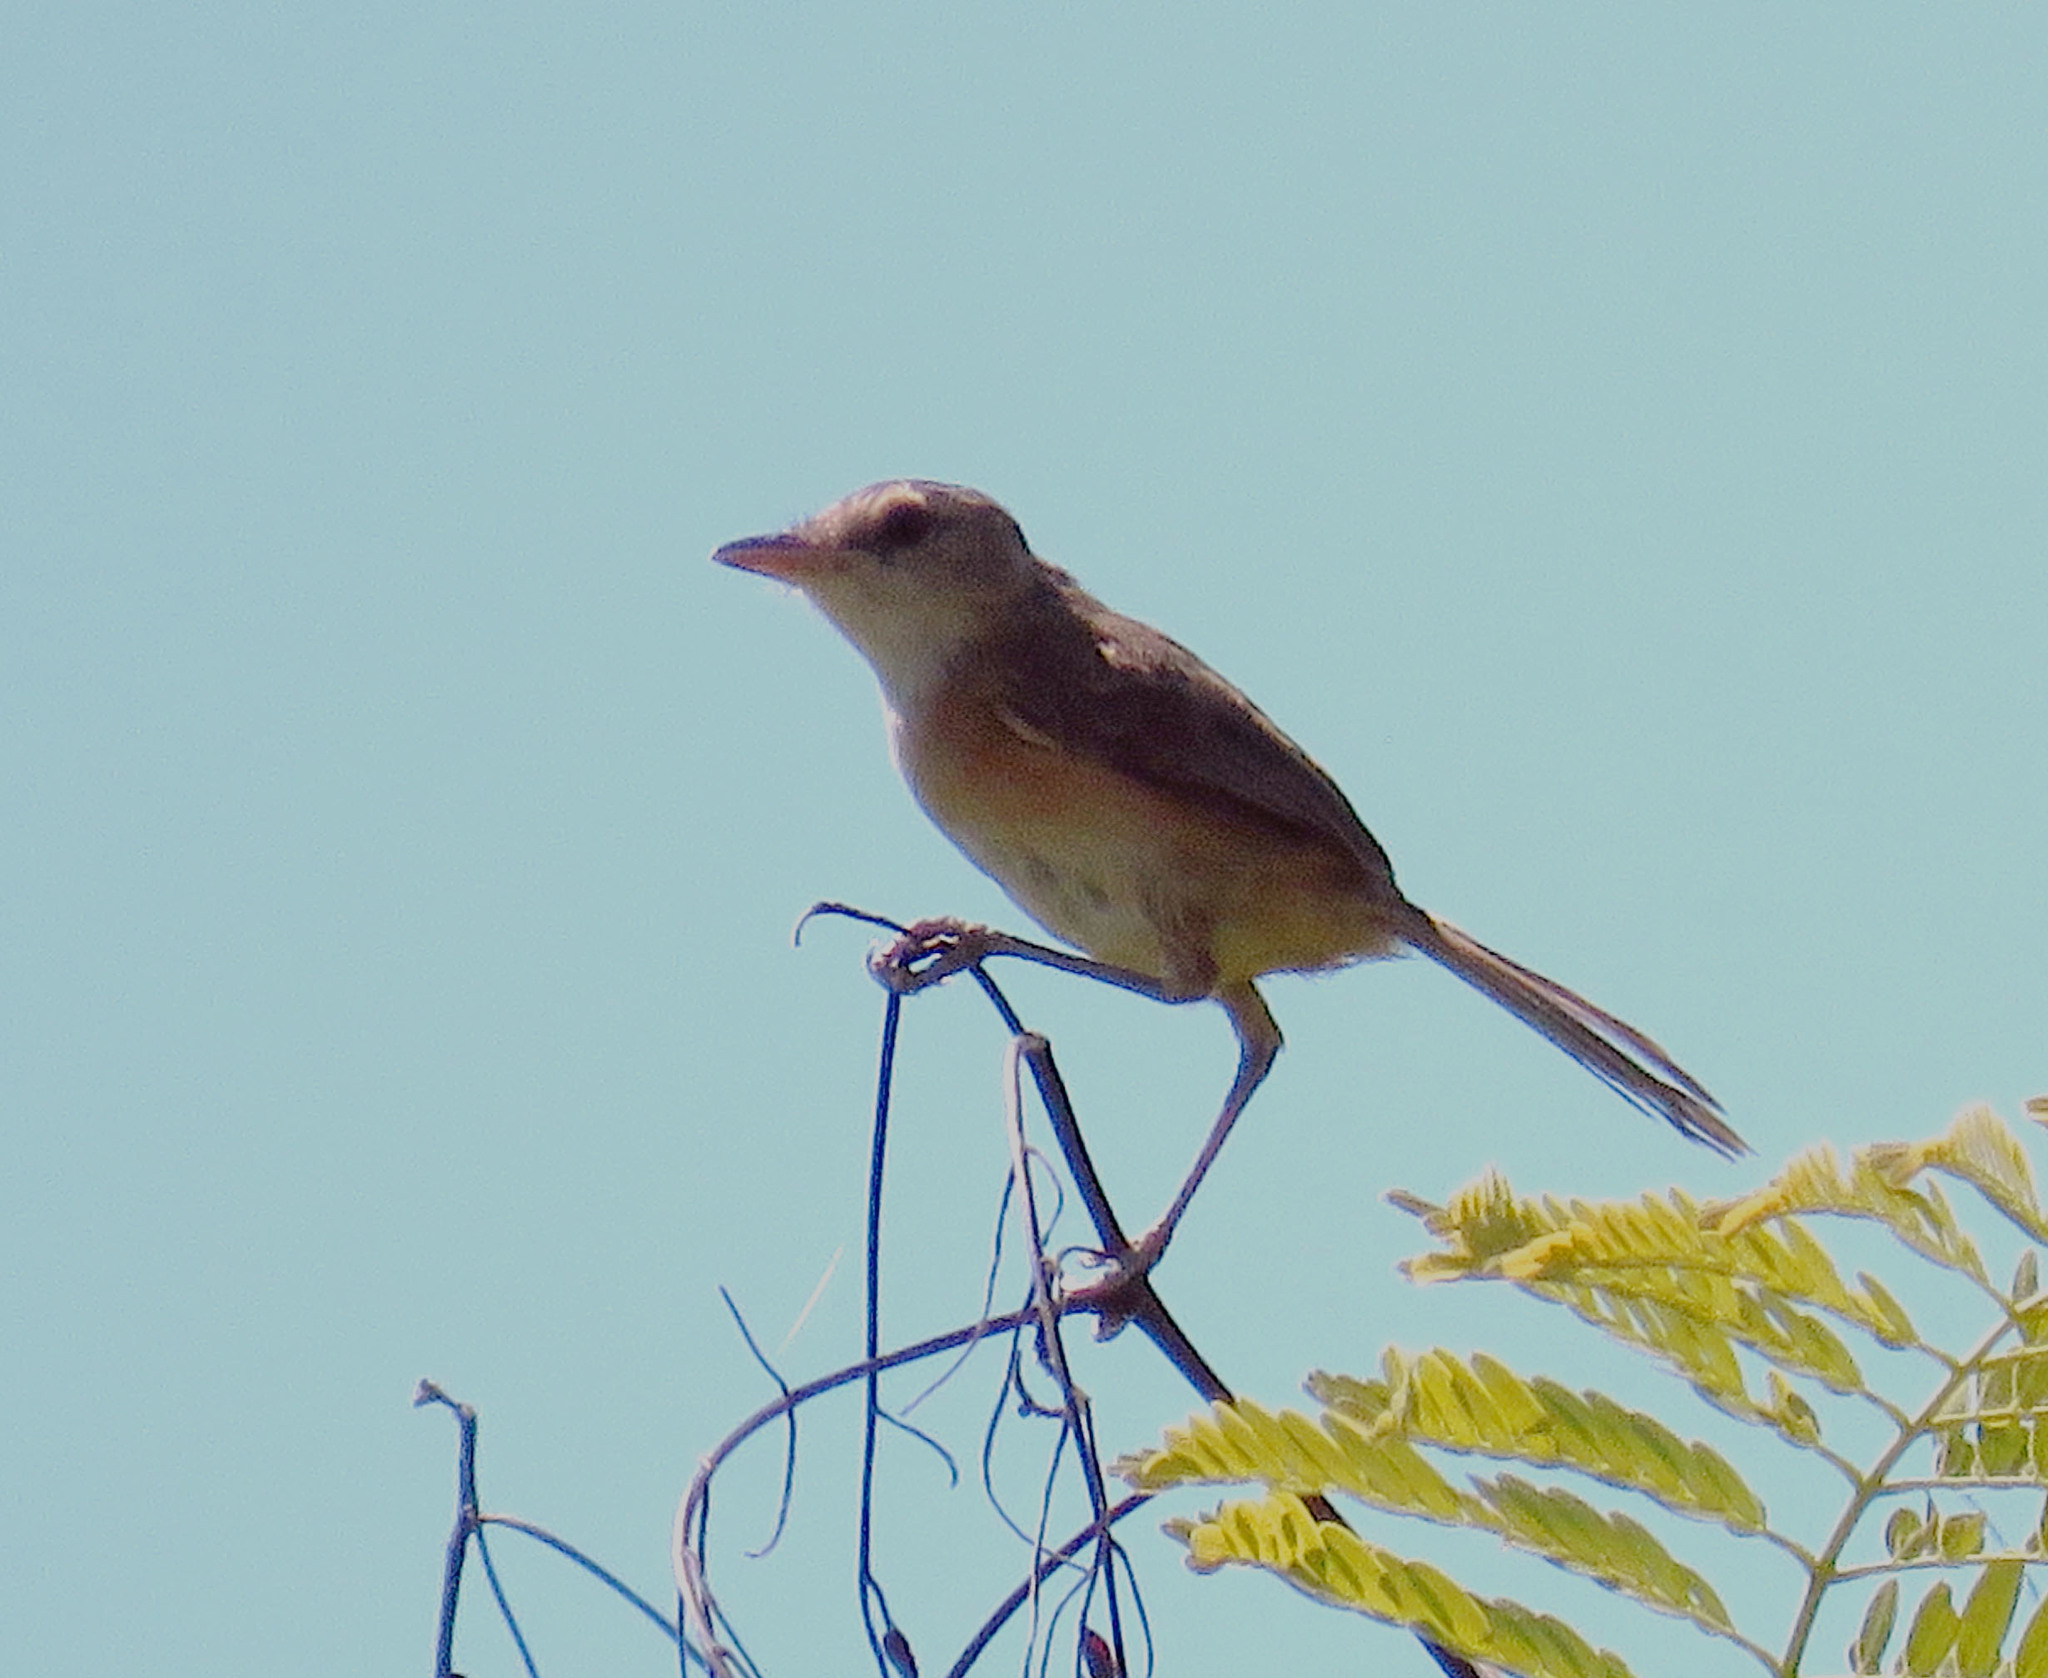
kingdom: Animalia
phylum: Chordata
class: Aves
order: Passeriformes
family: Tyrannidae
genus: Euscarthmus
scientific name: Euscarthmus rufomarginatus
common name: Rufous-sided pygmy tyrant
